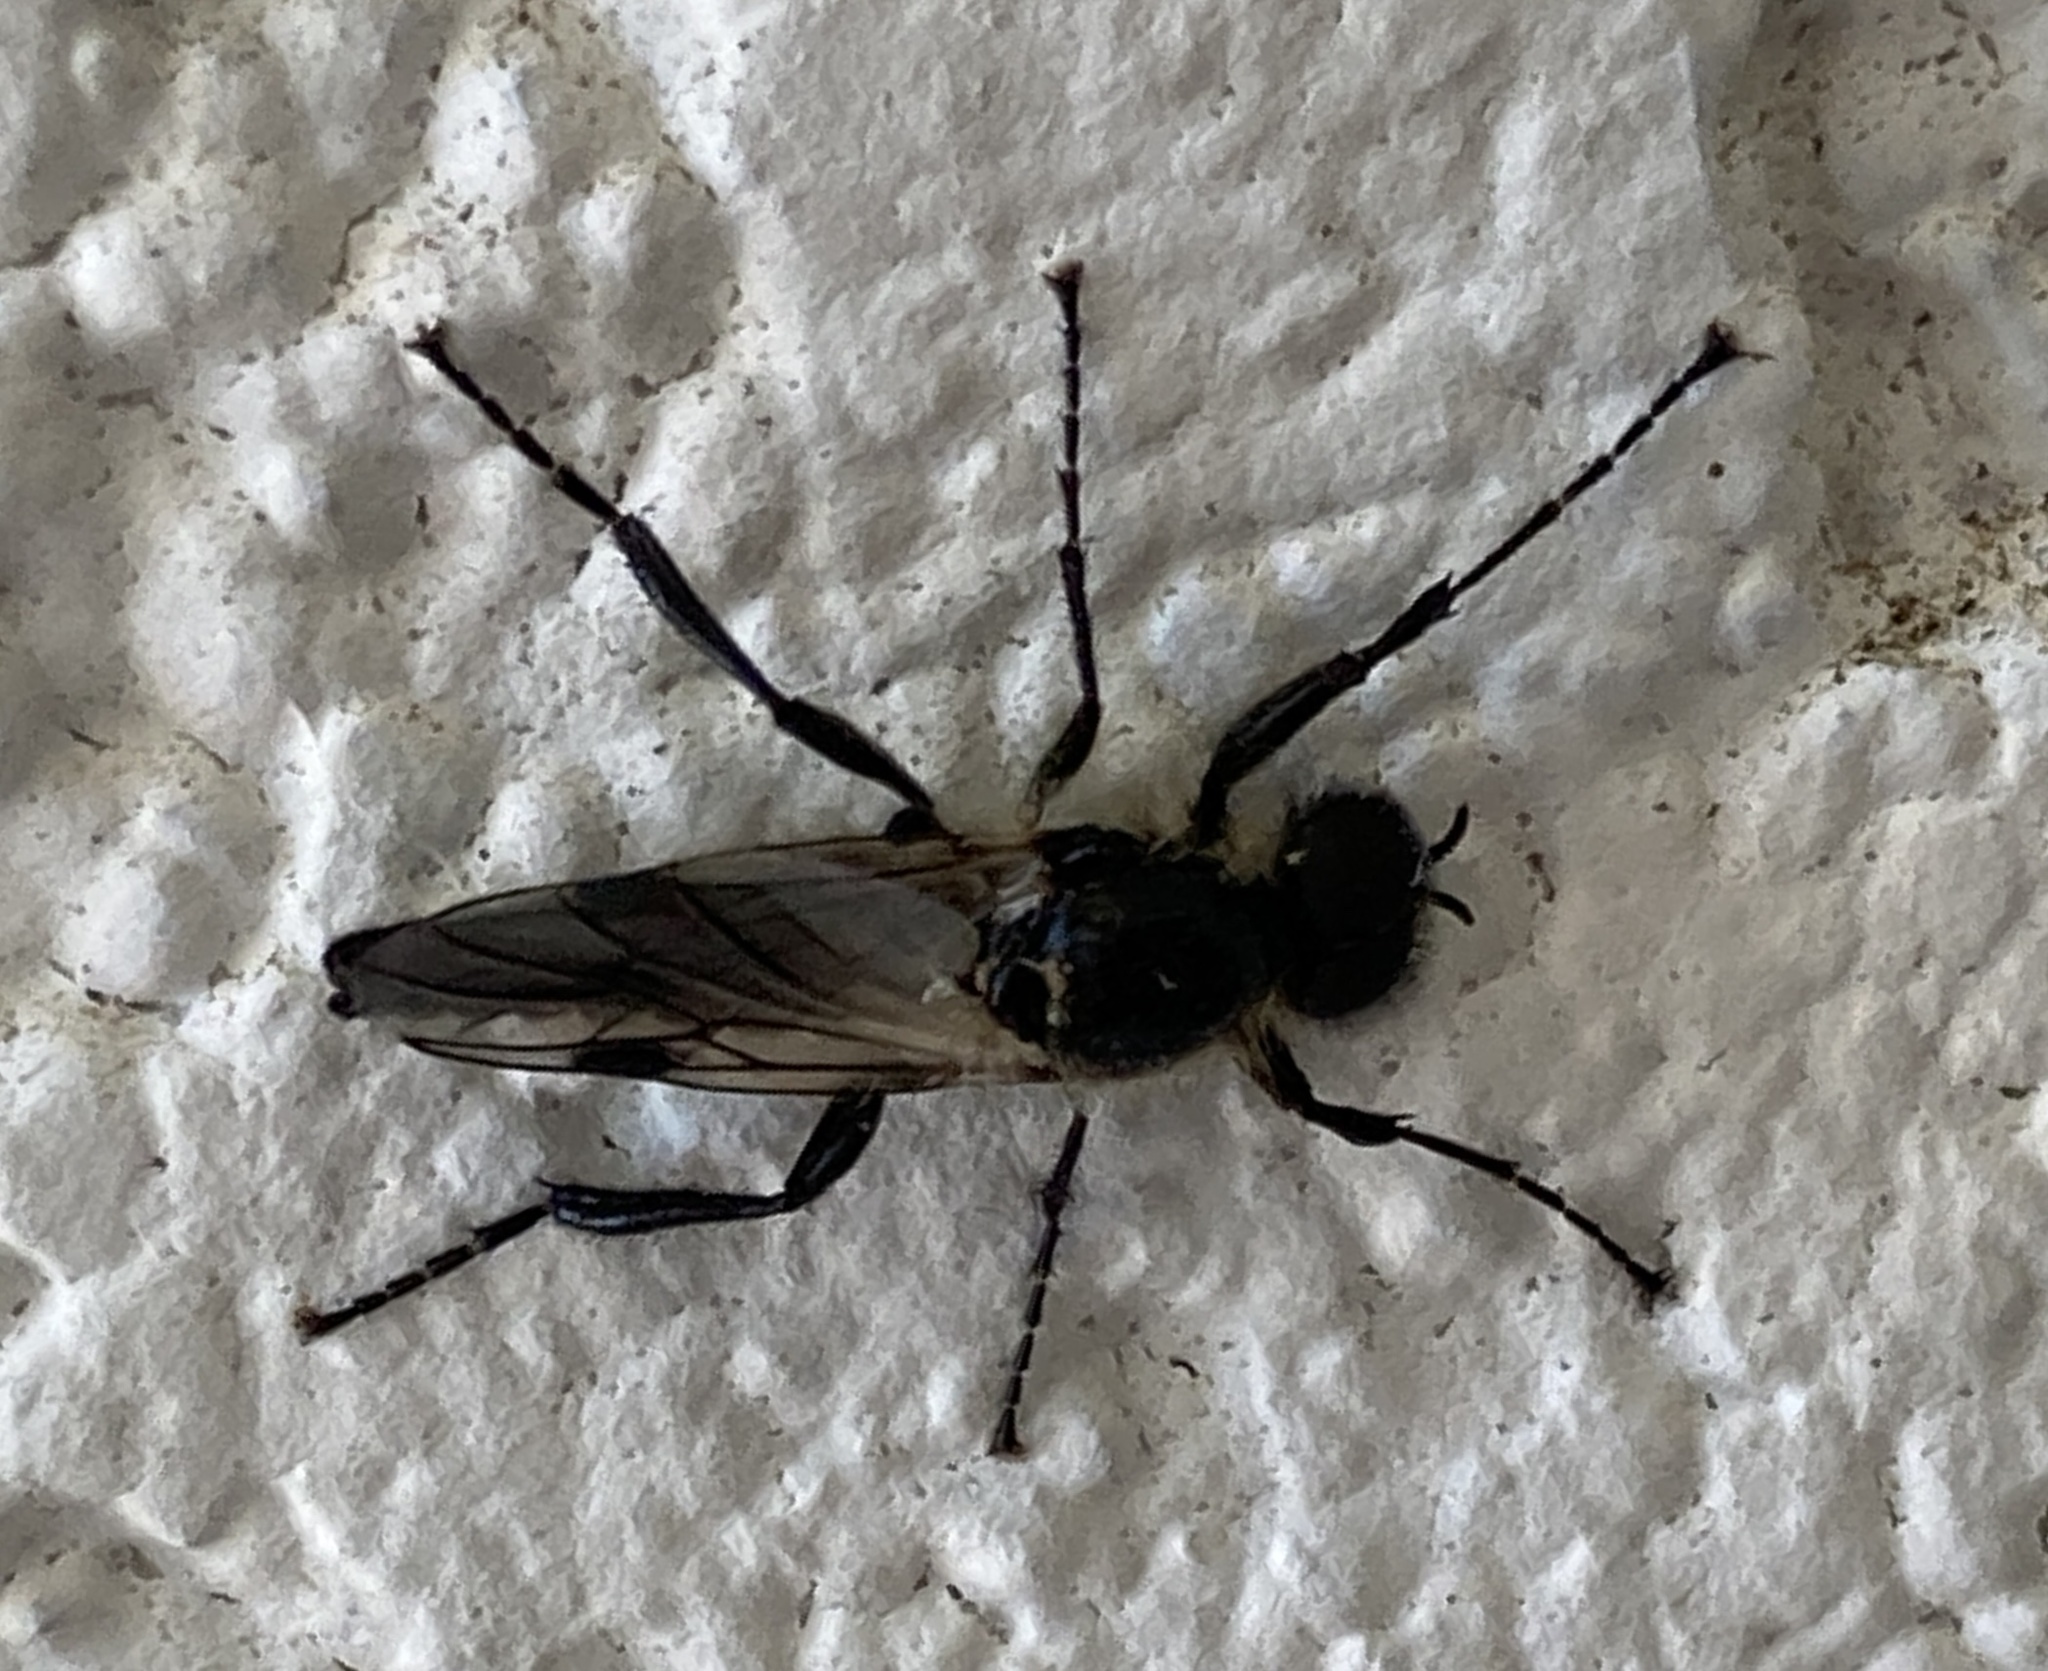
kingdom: Animalia
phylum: Arthropoda
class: Insecta
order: Diptera
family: Bibionidae
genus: Bibio
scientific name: Bibio albipennis
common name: White-winged march fly
